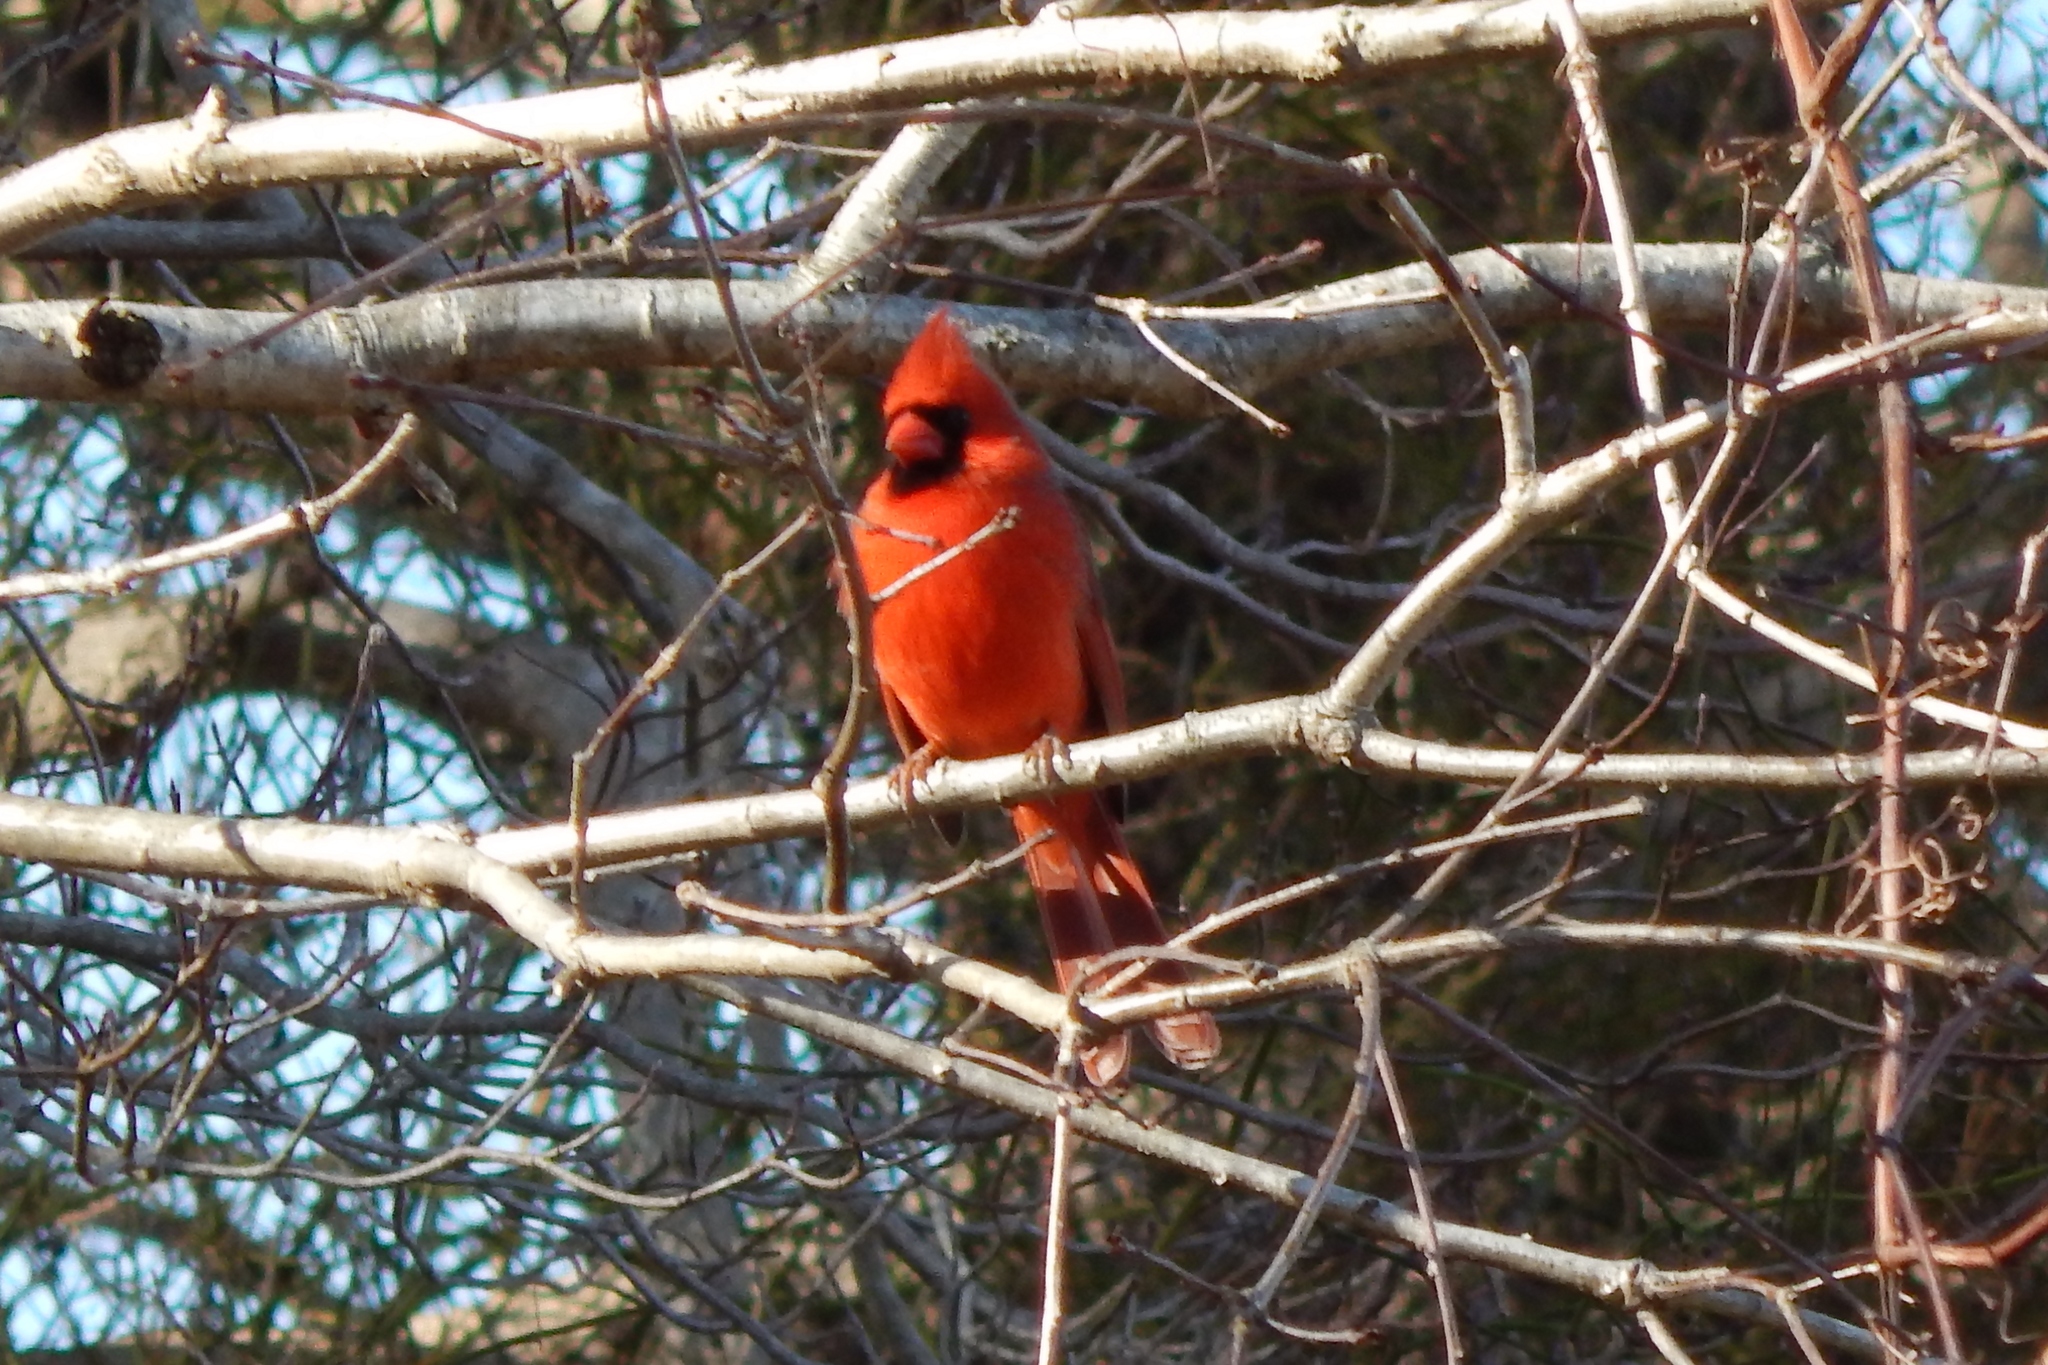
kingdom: Animalia
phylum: Chordata
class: Aves
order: Passeriformes
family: Cardinalidae
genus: Cardinalis
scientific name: Cardinalis cardinalis
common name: Northern cardinal
